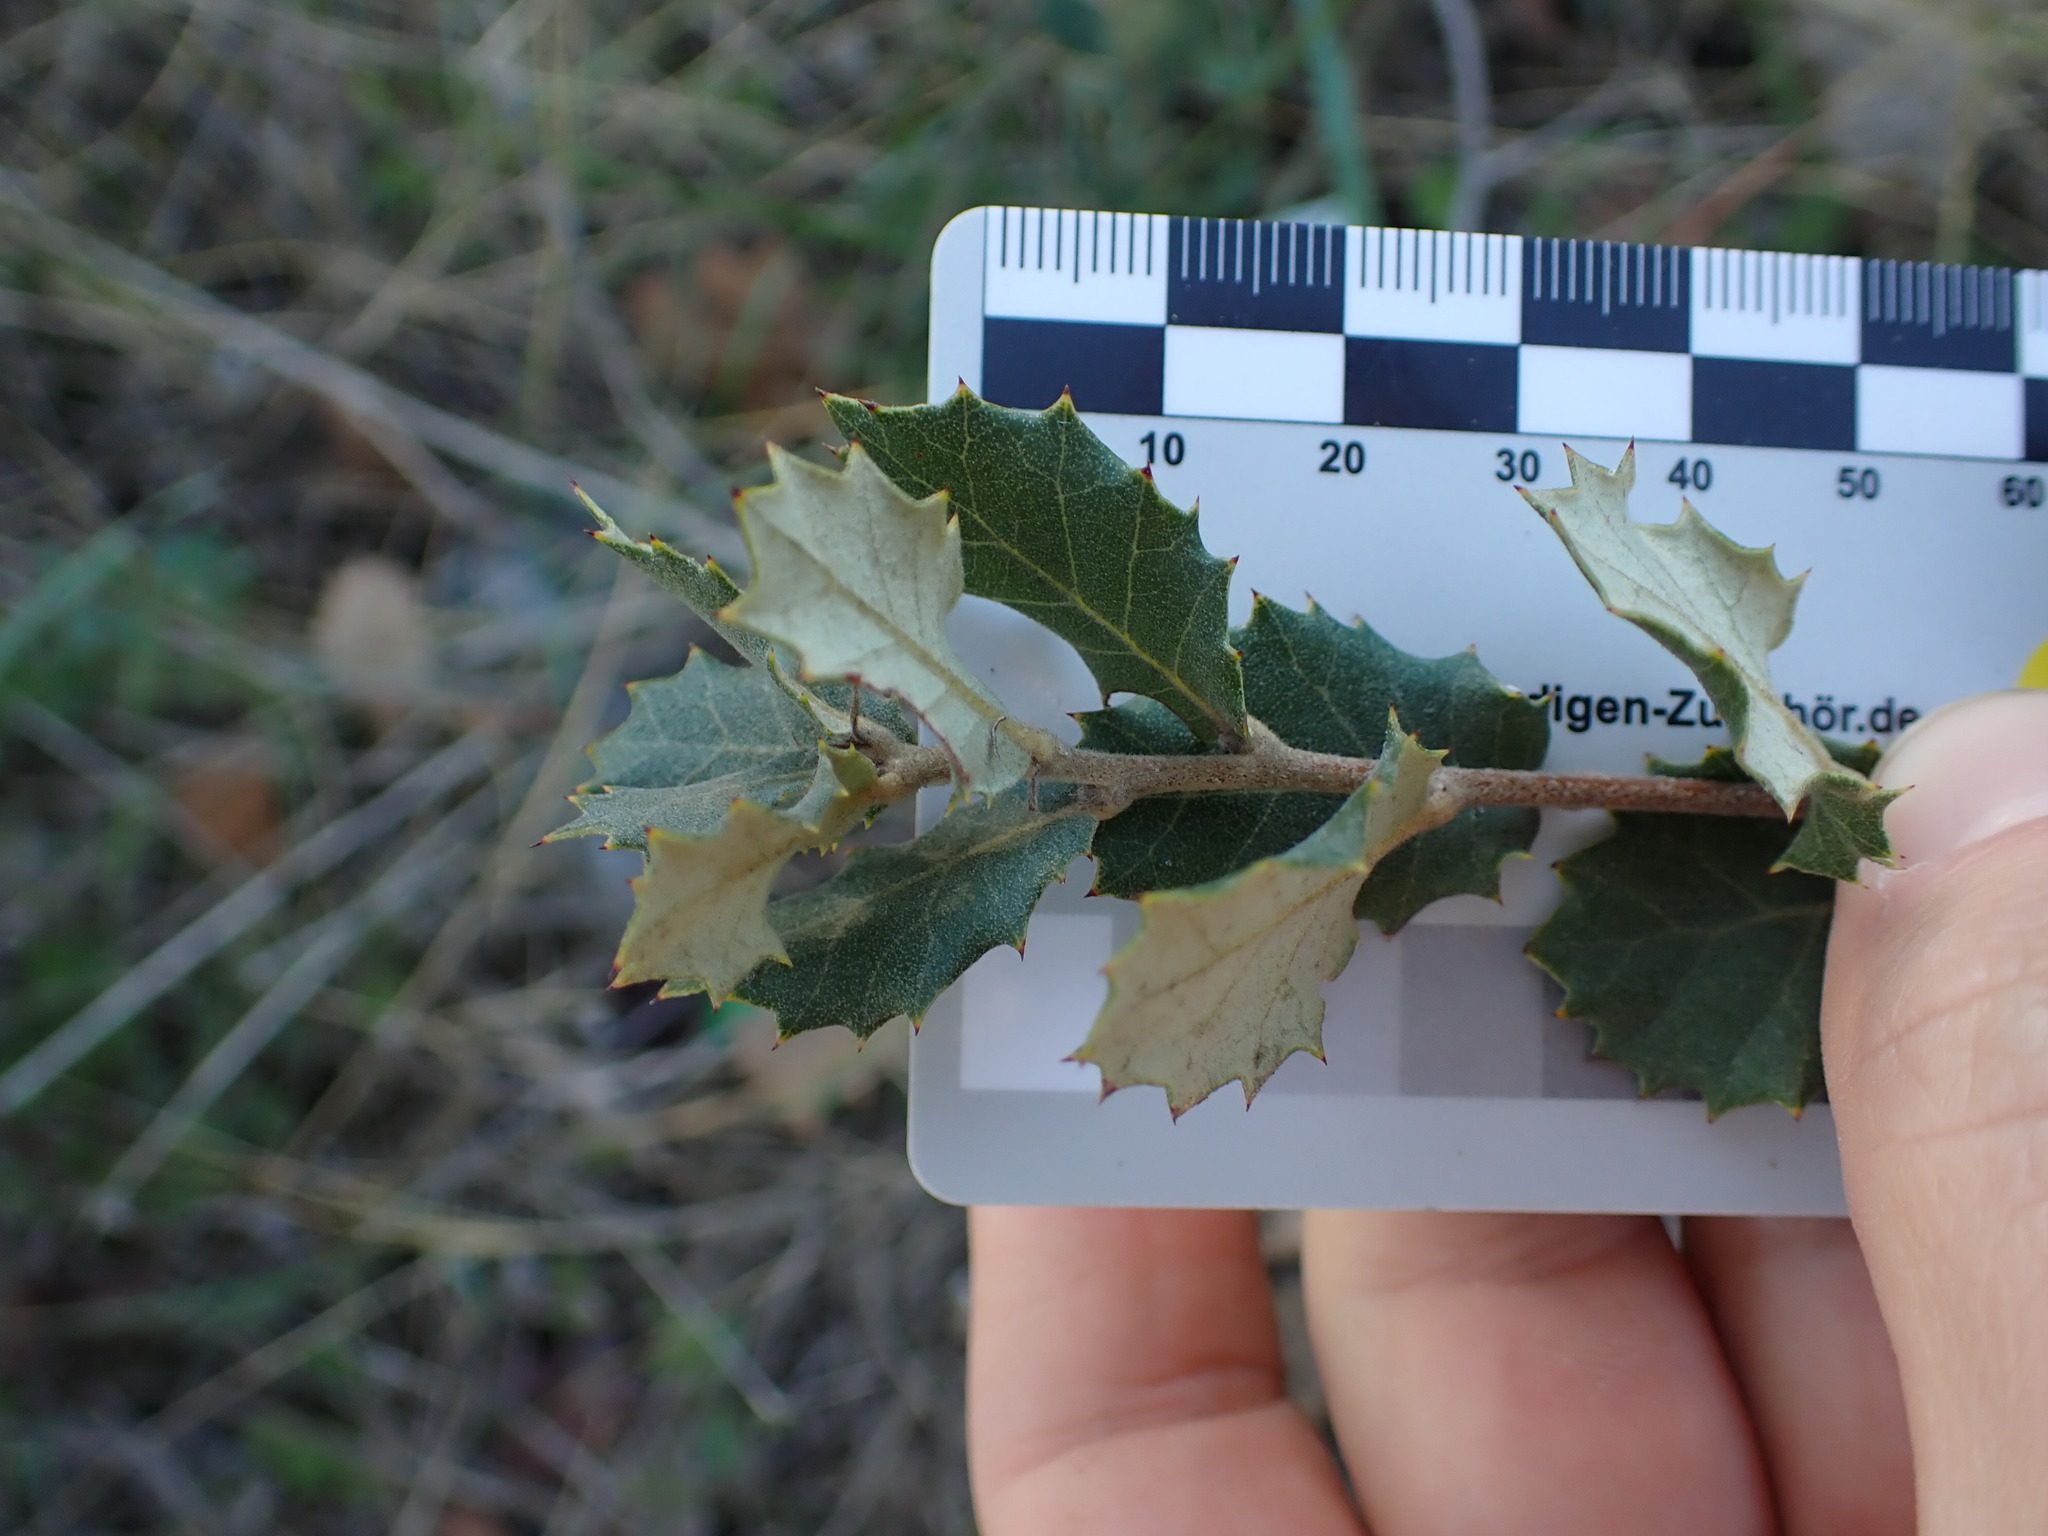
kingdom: Plantae
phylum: Tracheophyta
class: Magnoliopsida
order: Fagales
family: Fagaceae
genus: Quercus
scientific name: Quercus ilex
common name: Evergreen oak
